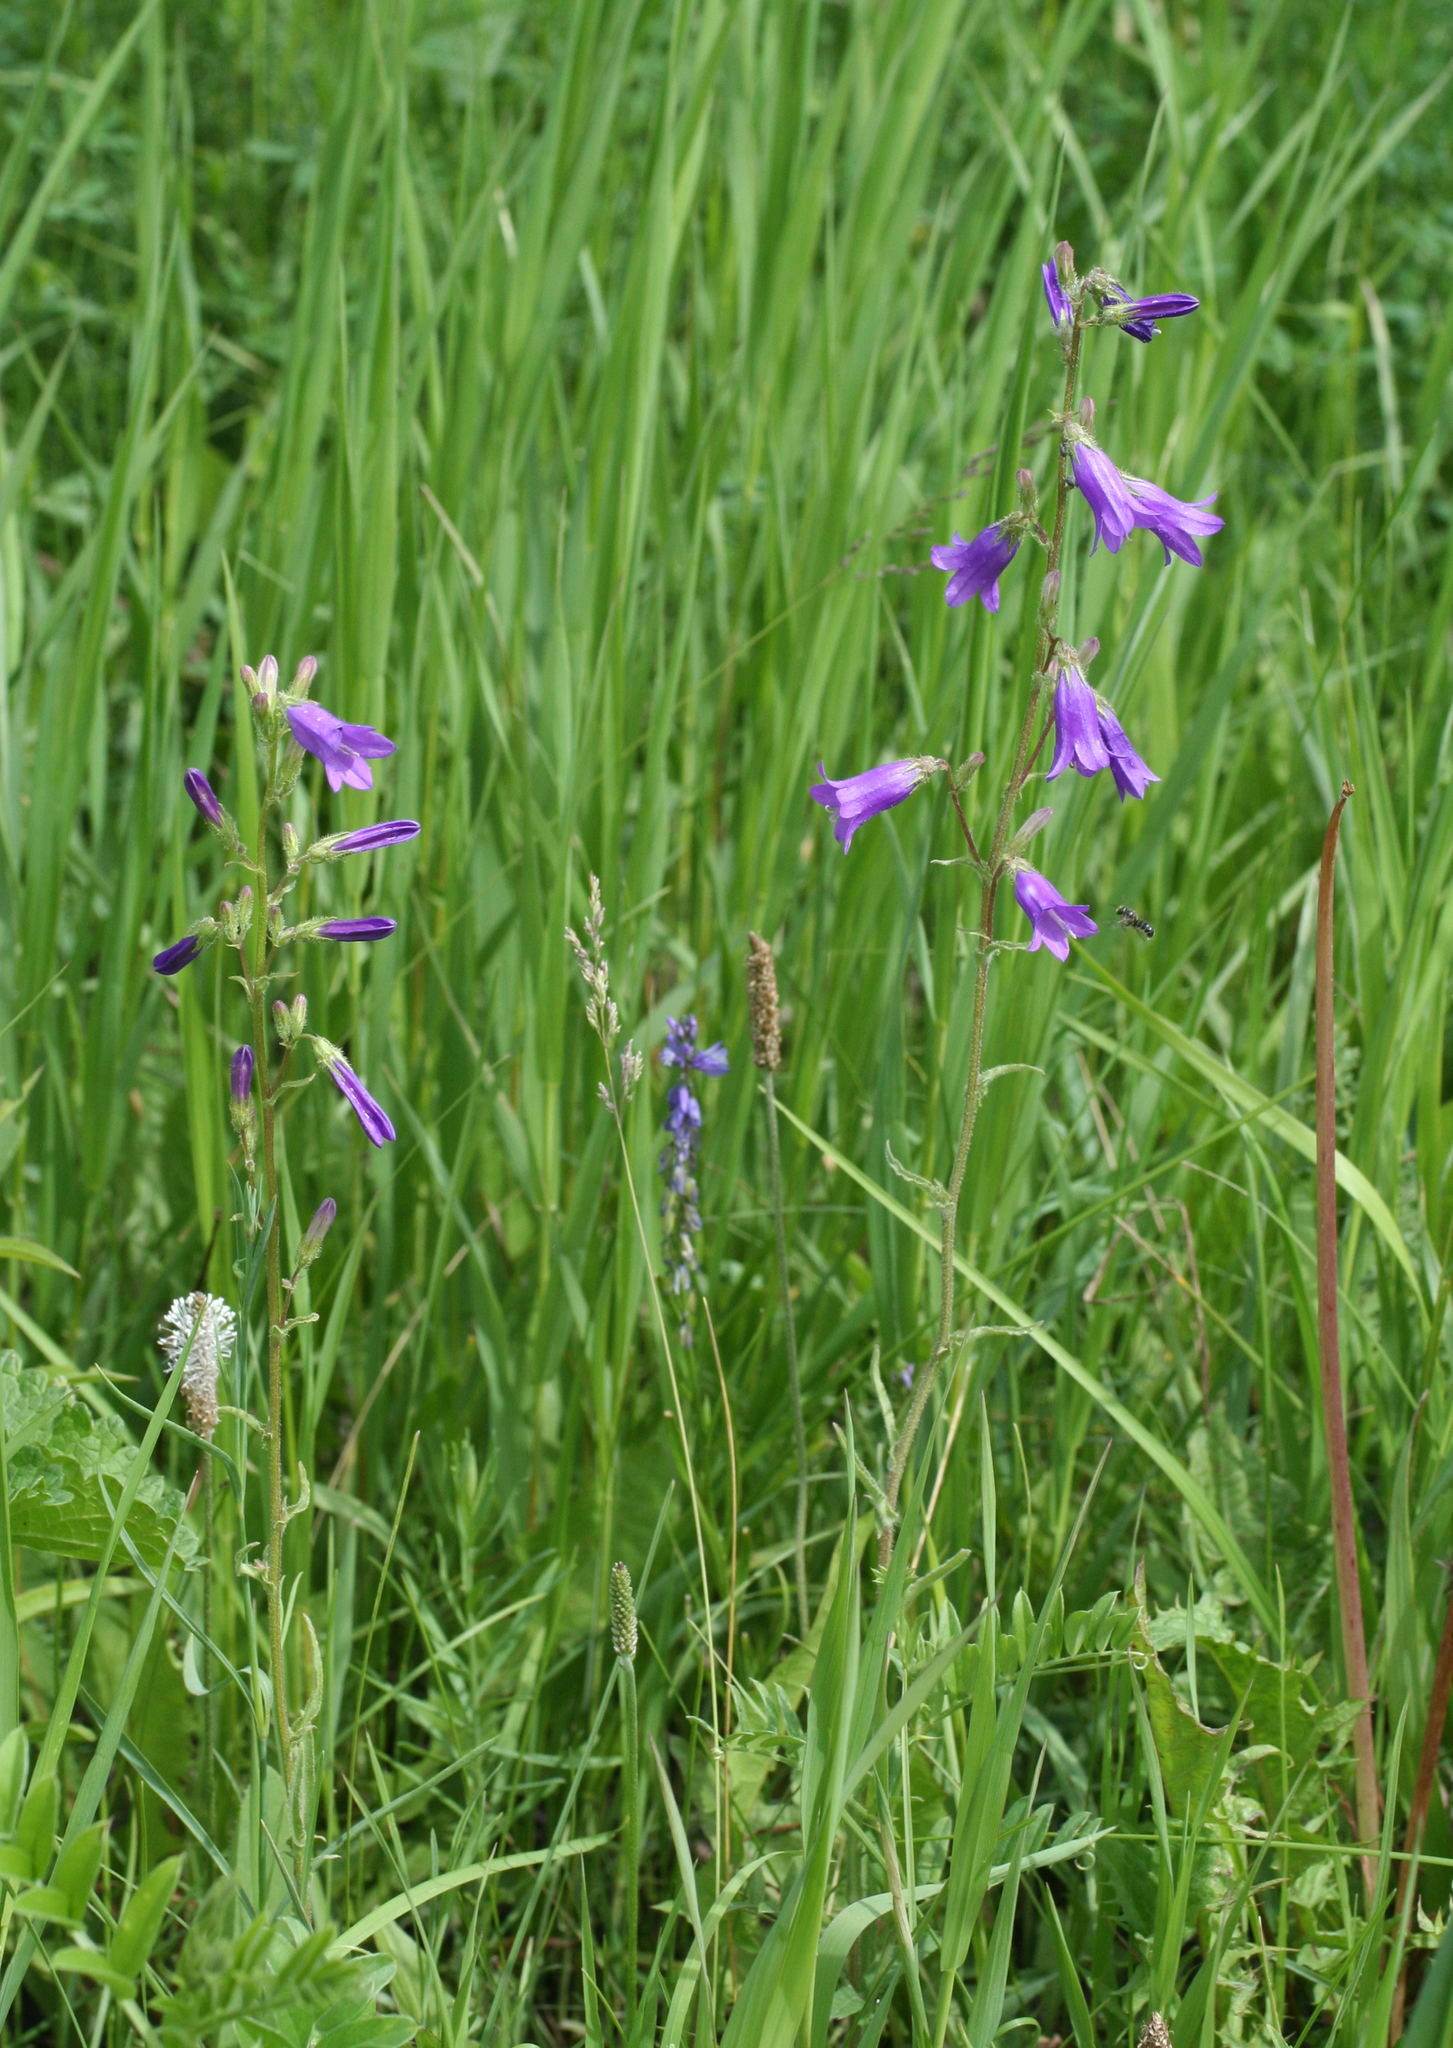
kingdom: Plantae
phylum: Tracheophyta
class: Magnoliopsida
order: Asterales
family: Campanulaceae
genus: Campanula
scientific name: Campanula sibirica
